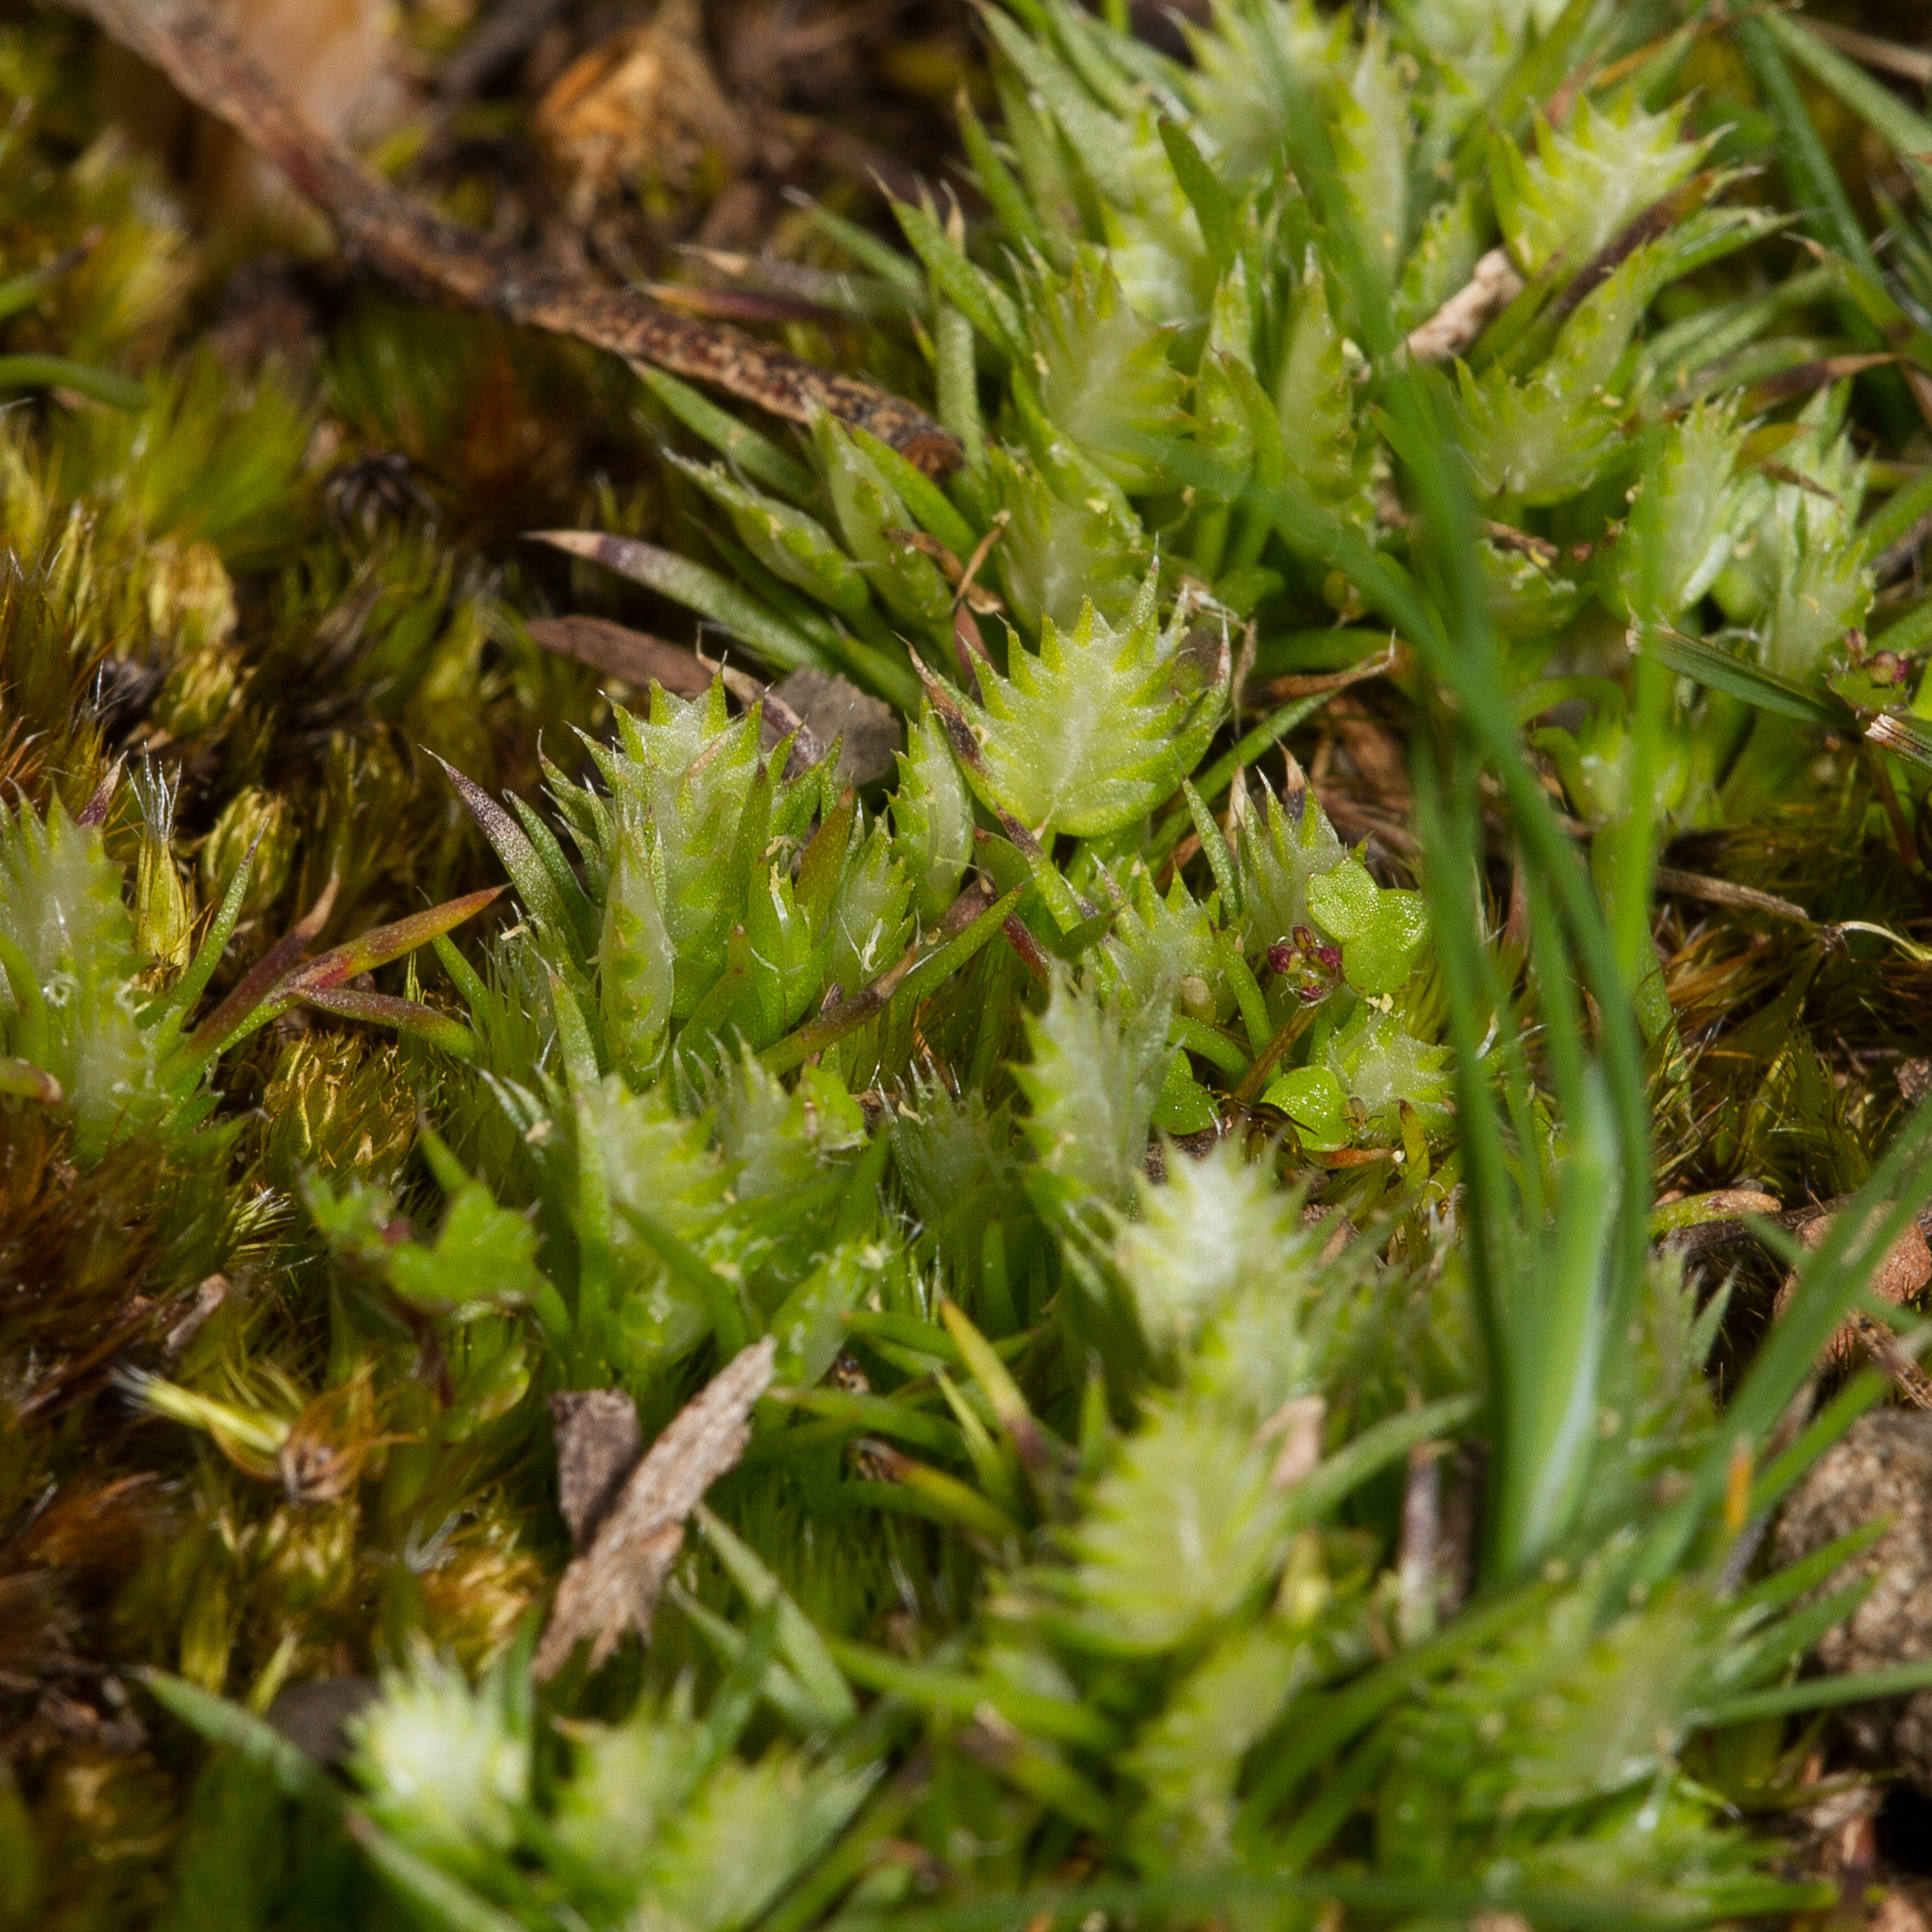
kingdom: Plantae
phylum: Tracheophyta
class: Liliopsida
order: Poales
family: Restionaceae
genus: Aphelia
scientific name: Aphelia pumilio
